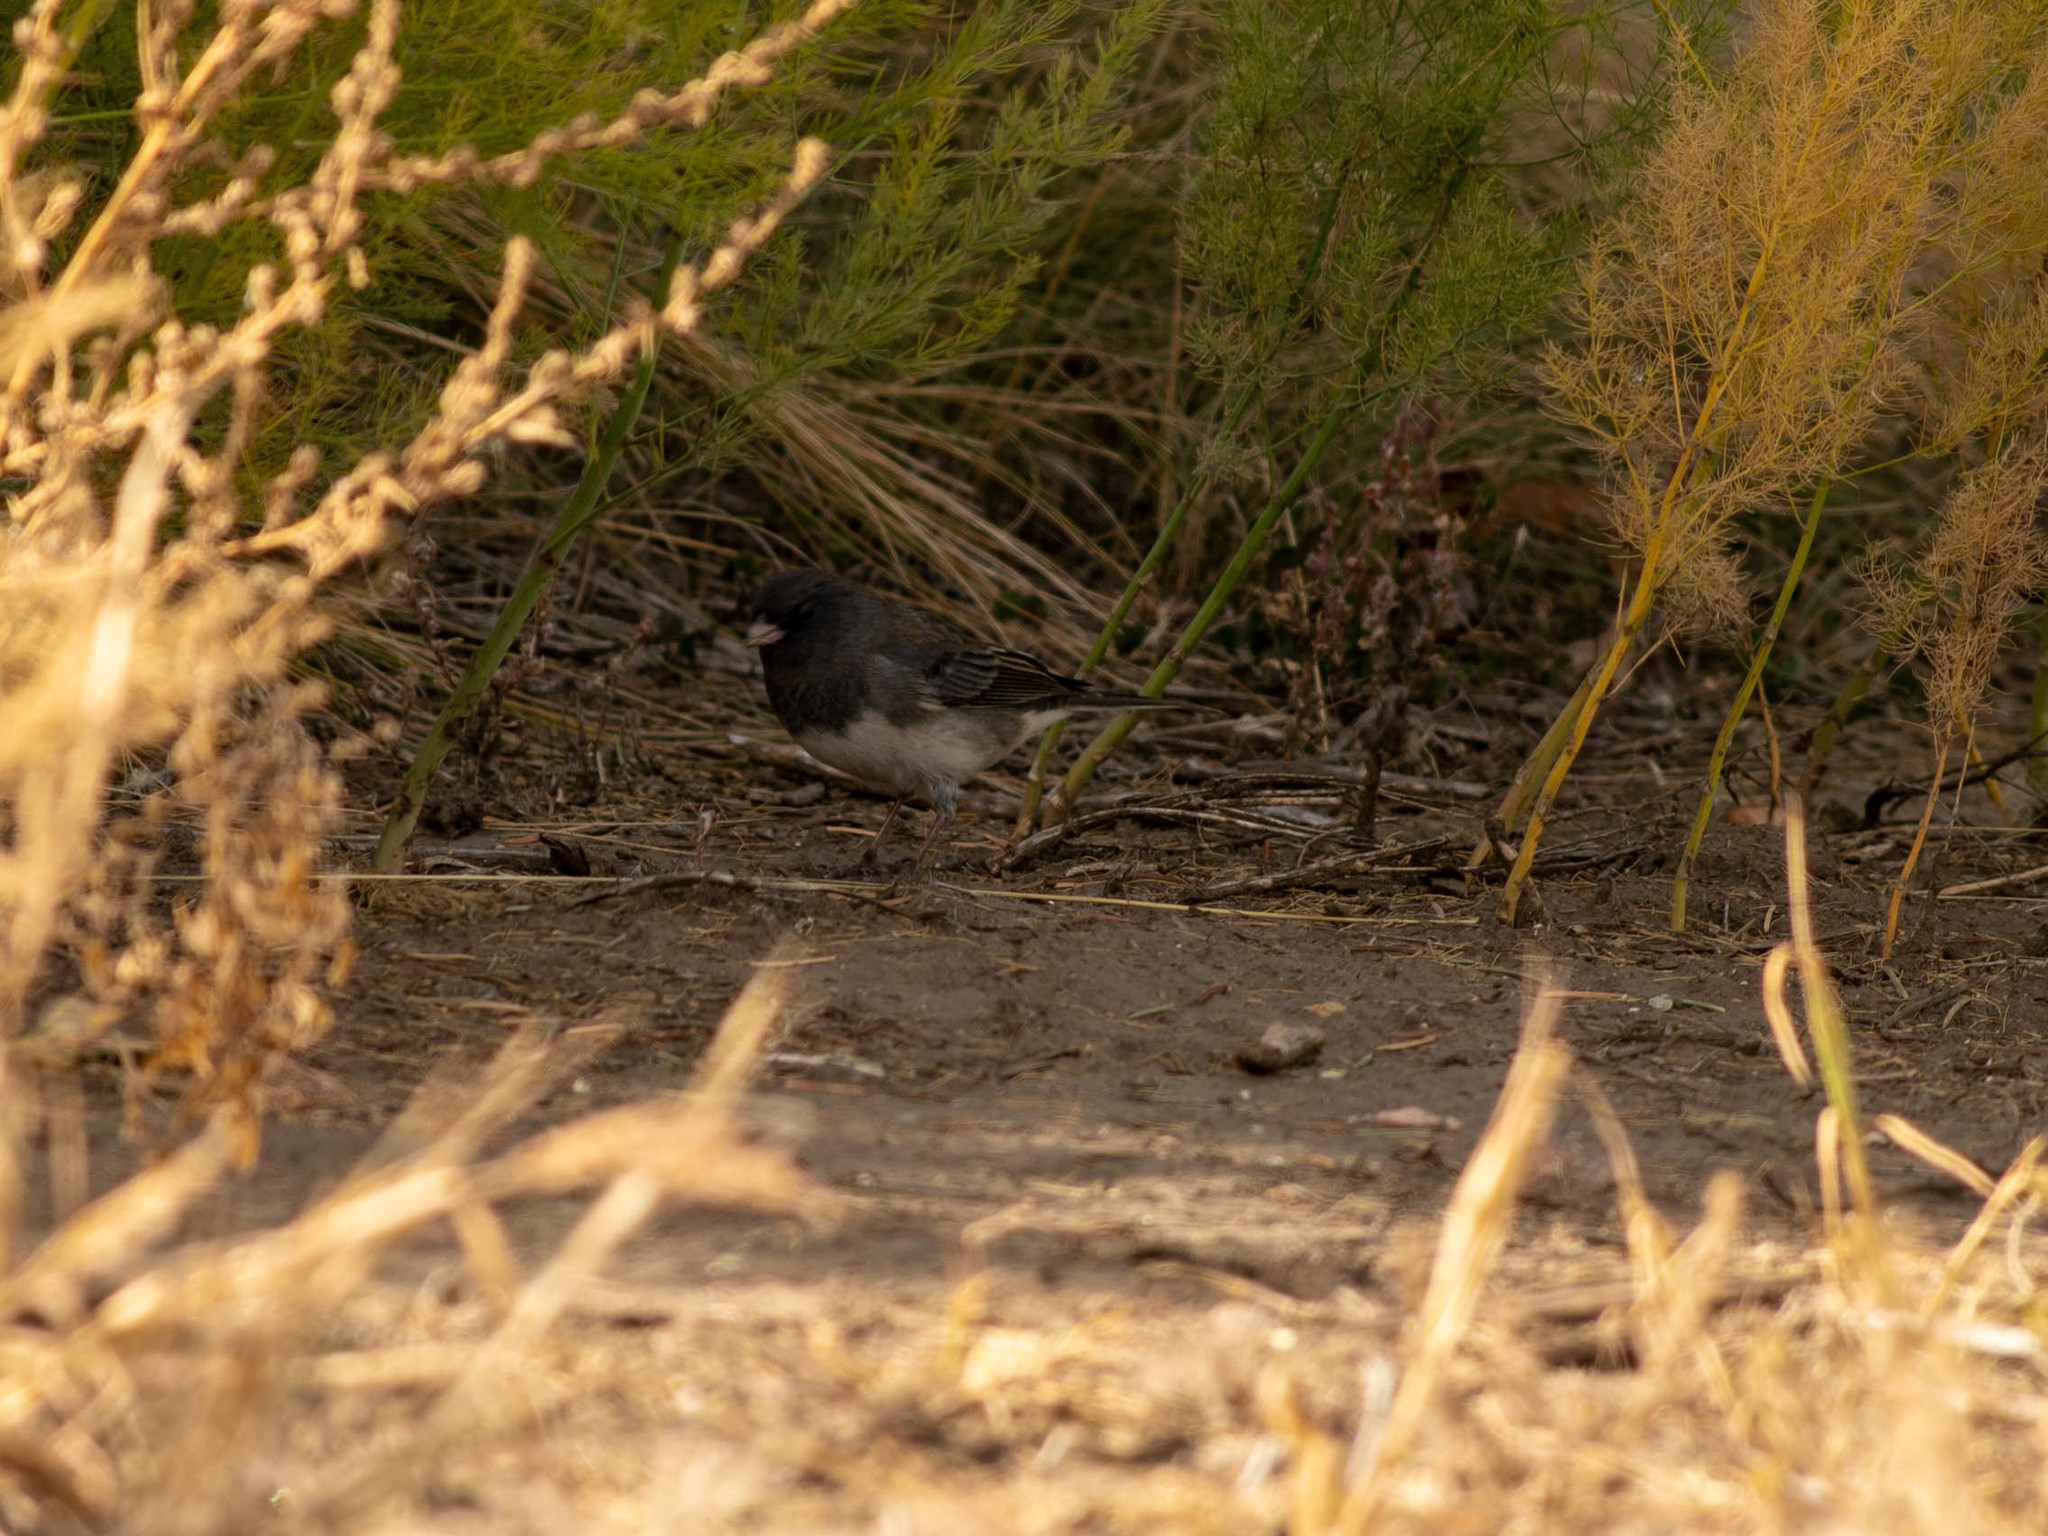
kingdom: Animalia
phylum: Chordata
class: Aves
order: Passeriformes
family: Passerellidae
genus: Junco
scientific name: Junco hyemalis
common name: Dark-eyed junco
